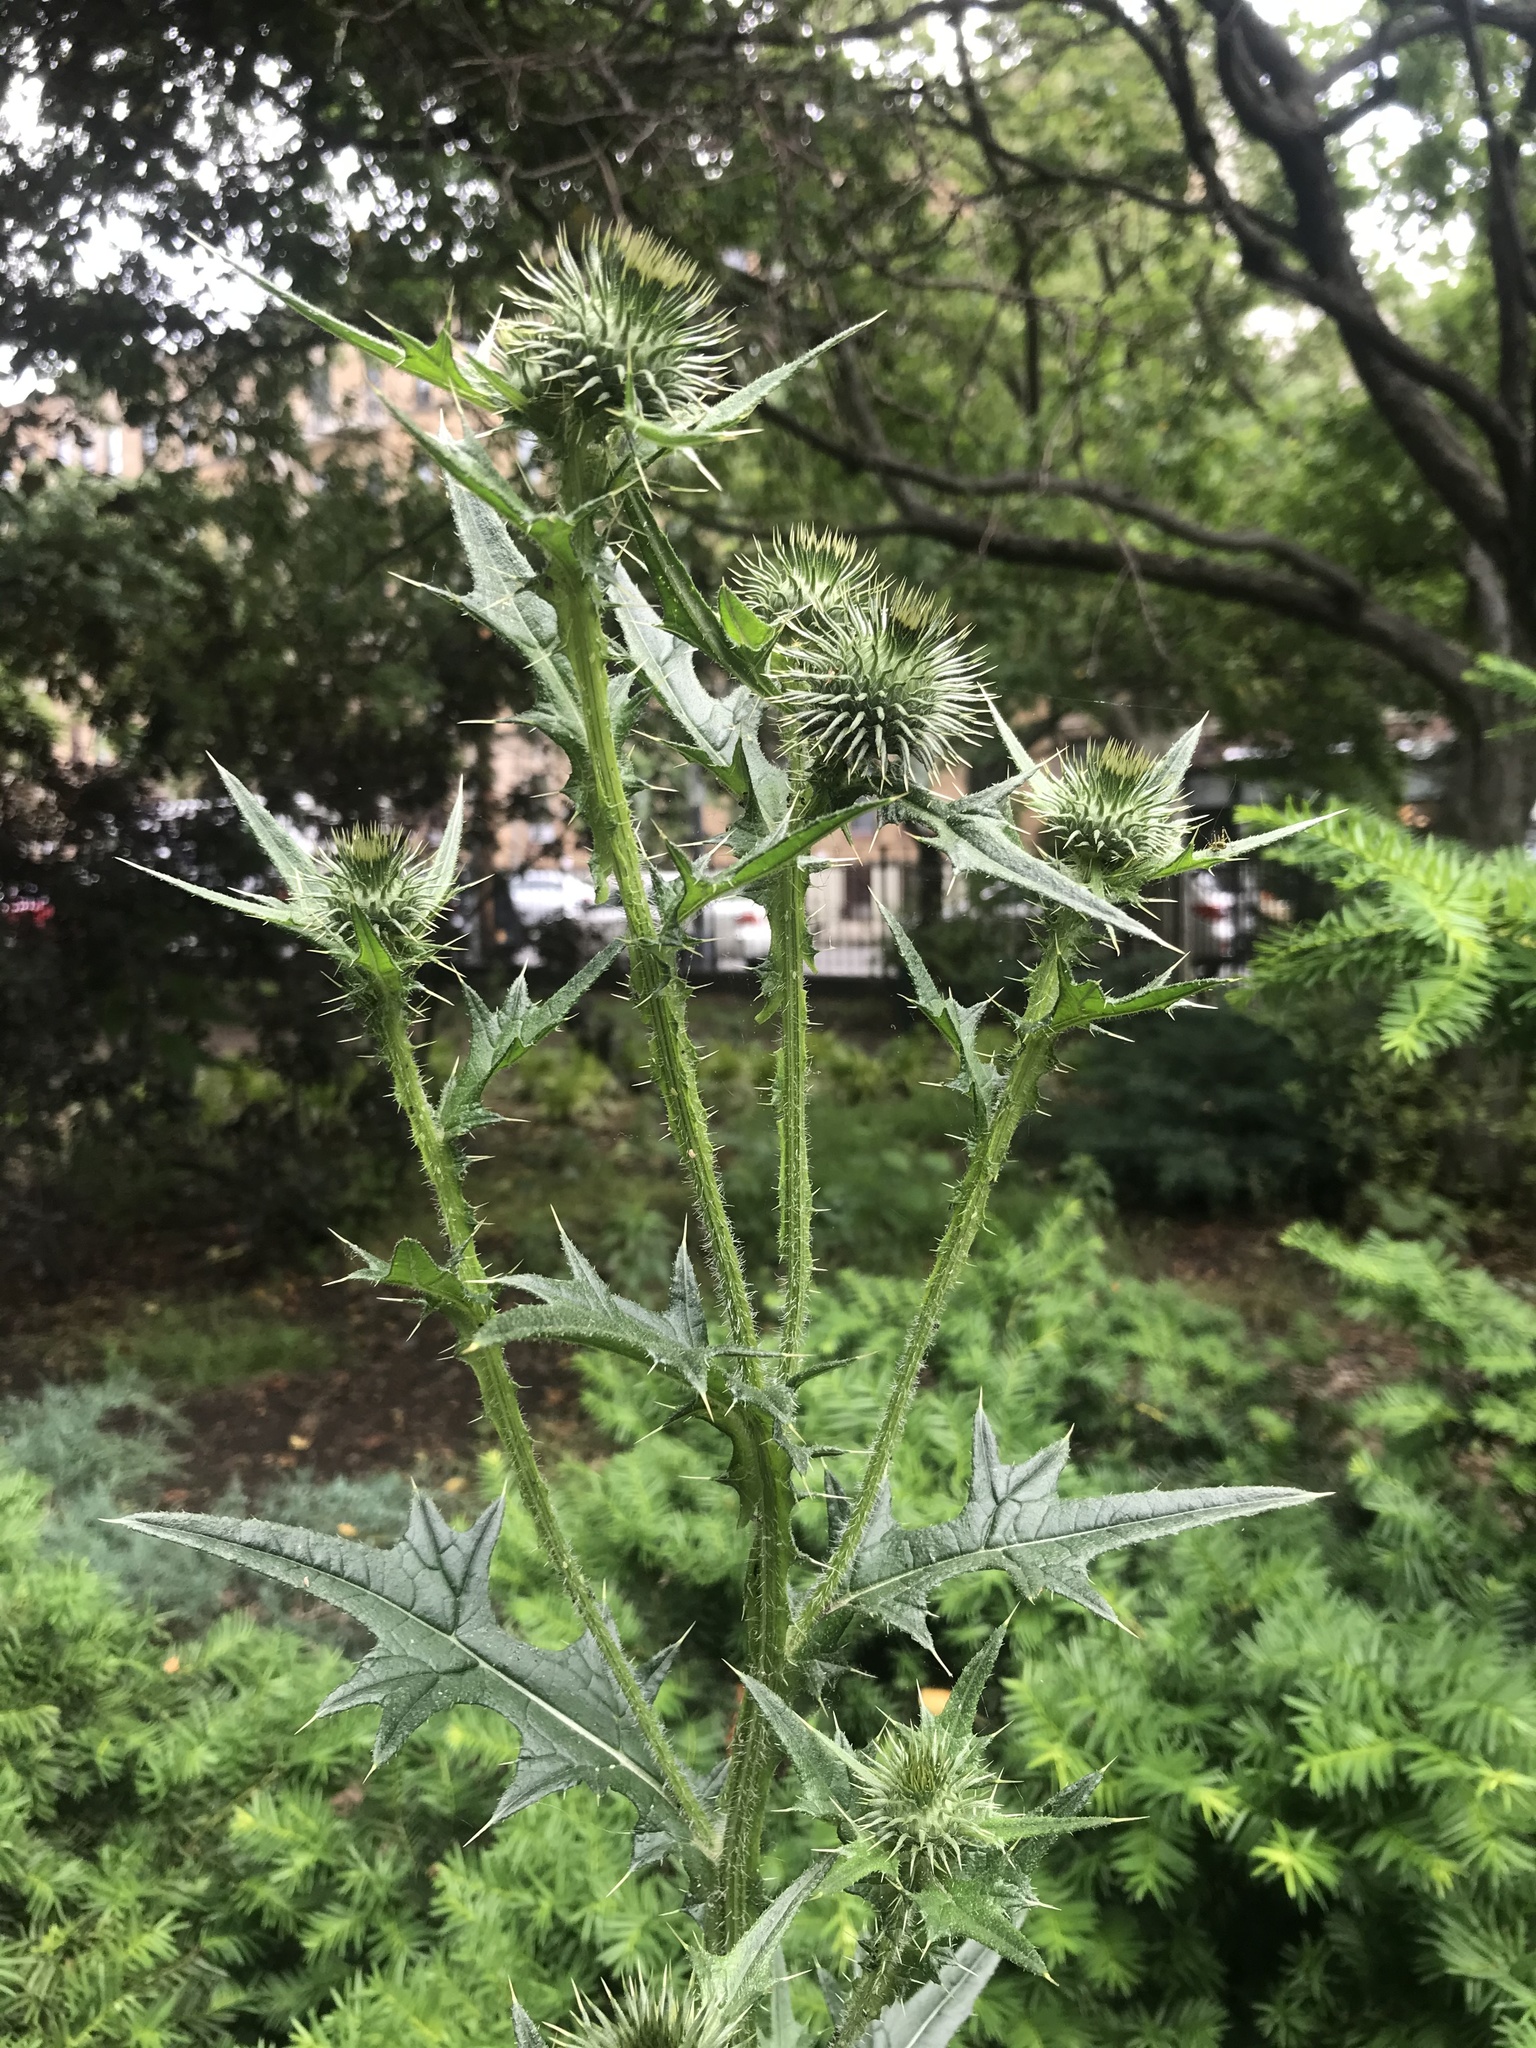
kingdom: Plantae
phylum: Tracheophyta
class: Magnoliopsida
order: Asterales
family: Asteraceae
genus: Cirsium
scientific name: Cirsium vulgare
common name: Bull thistle
